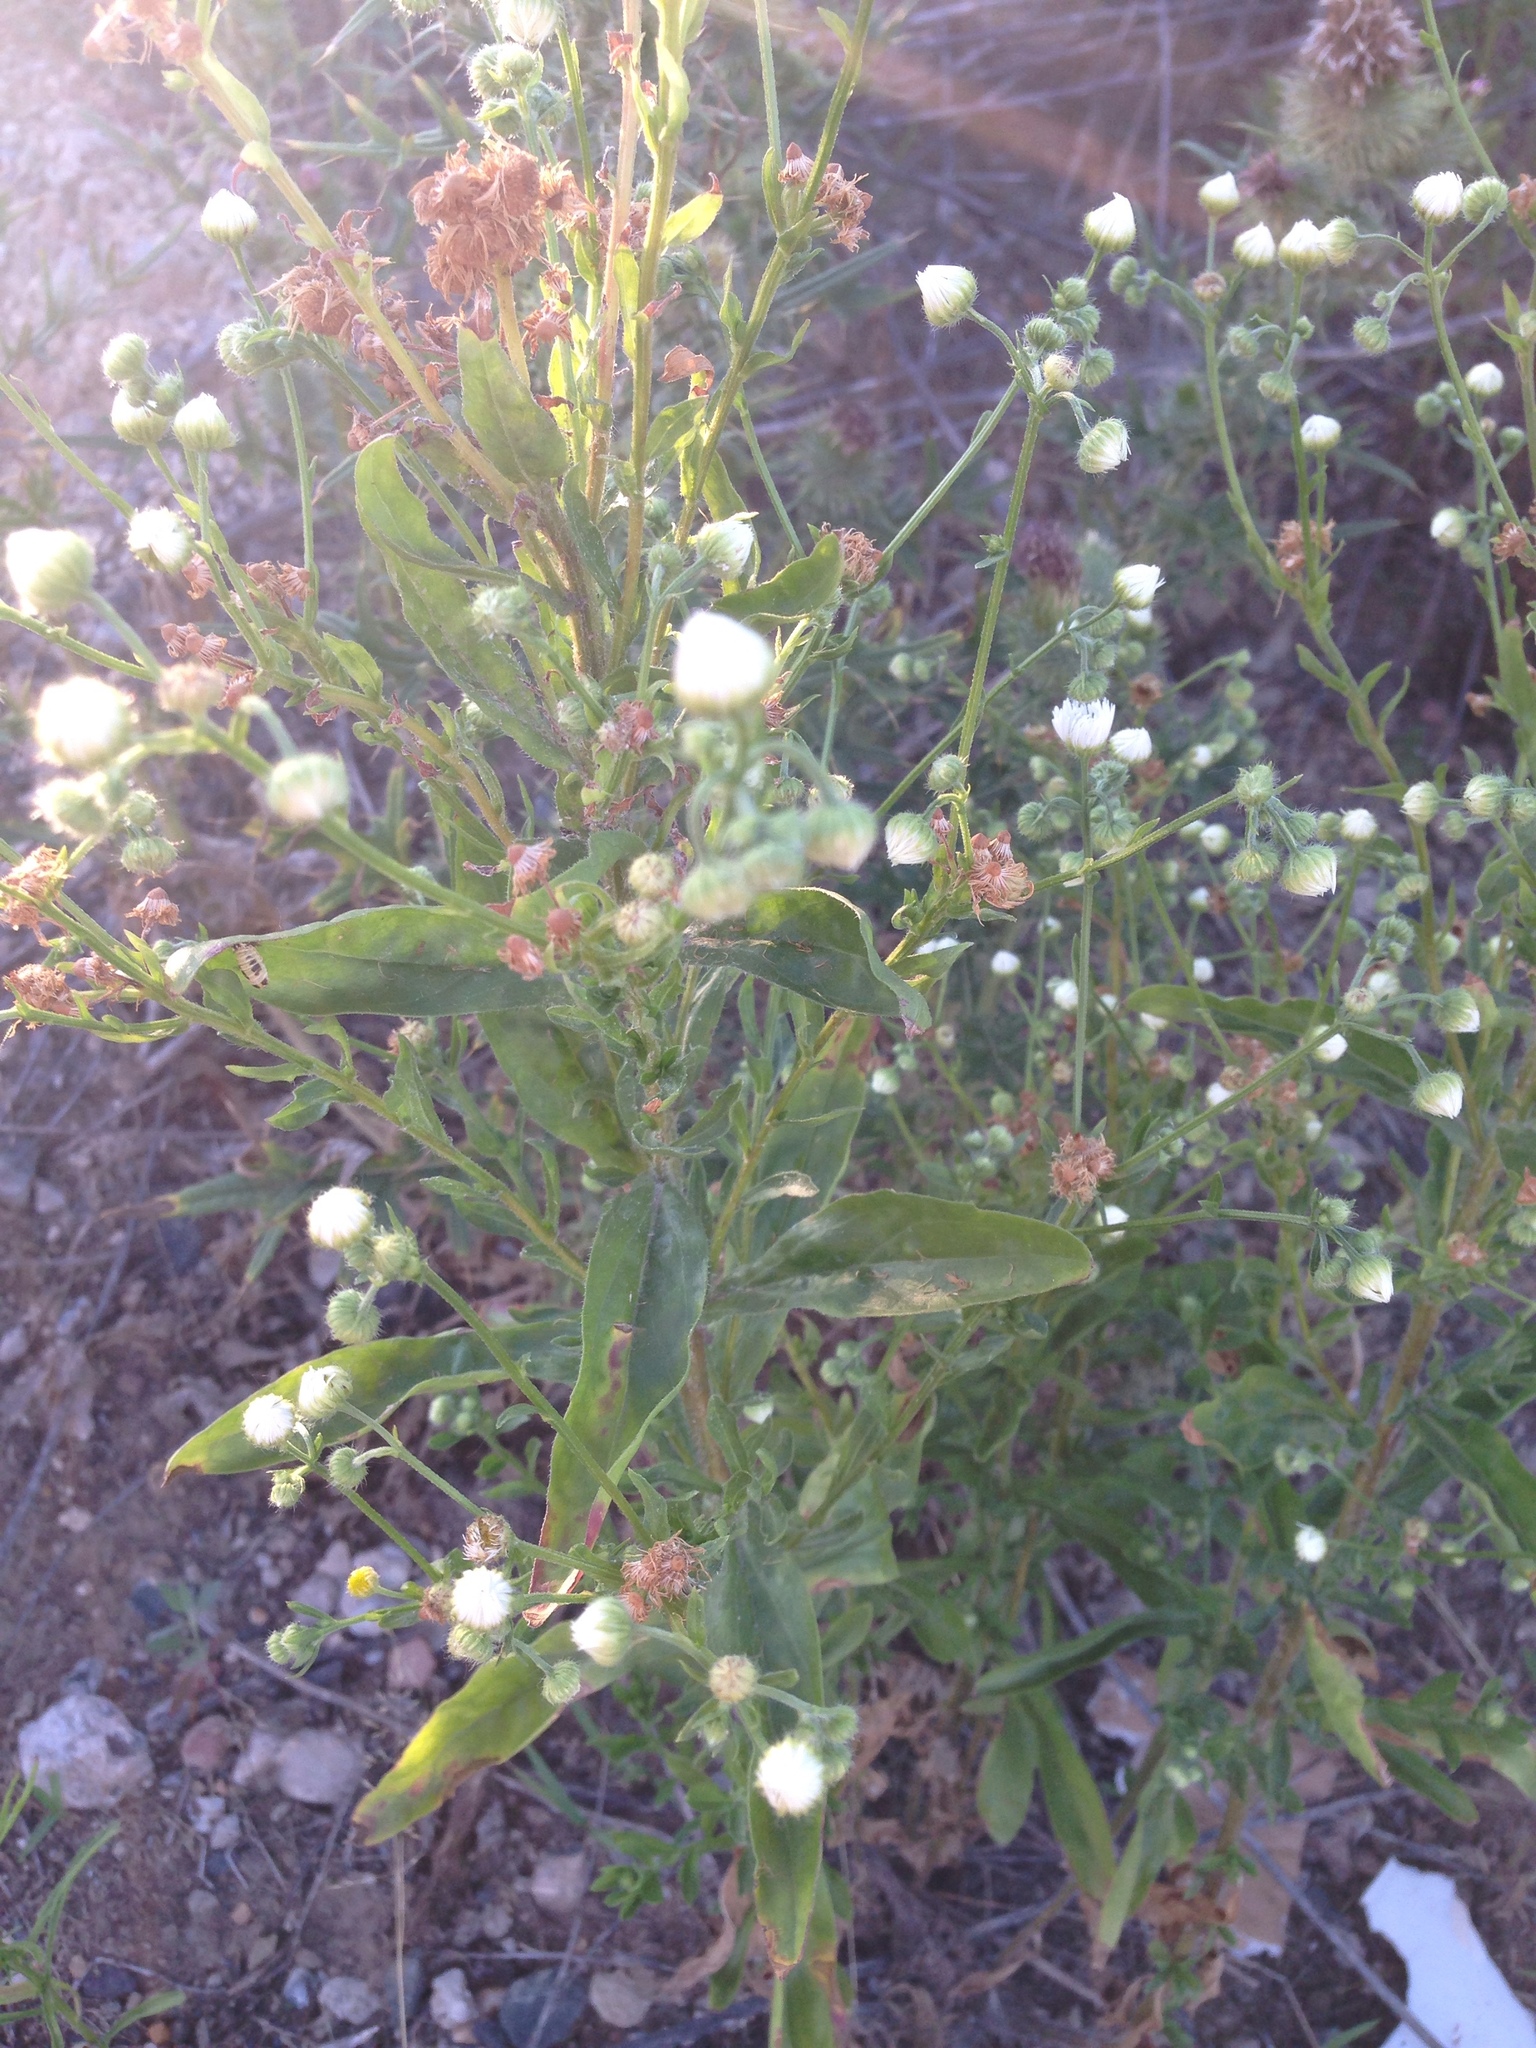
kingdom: Plantae
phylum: Tracheophyta
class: Magnoliopsida
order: Asterales
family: Asteraceae
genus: Erigeron
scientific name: Erigeron annuus
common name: Tall fleabane
